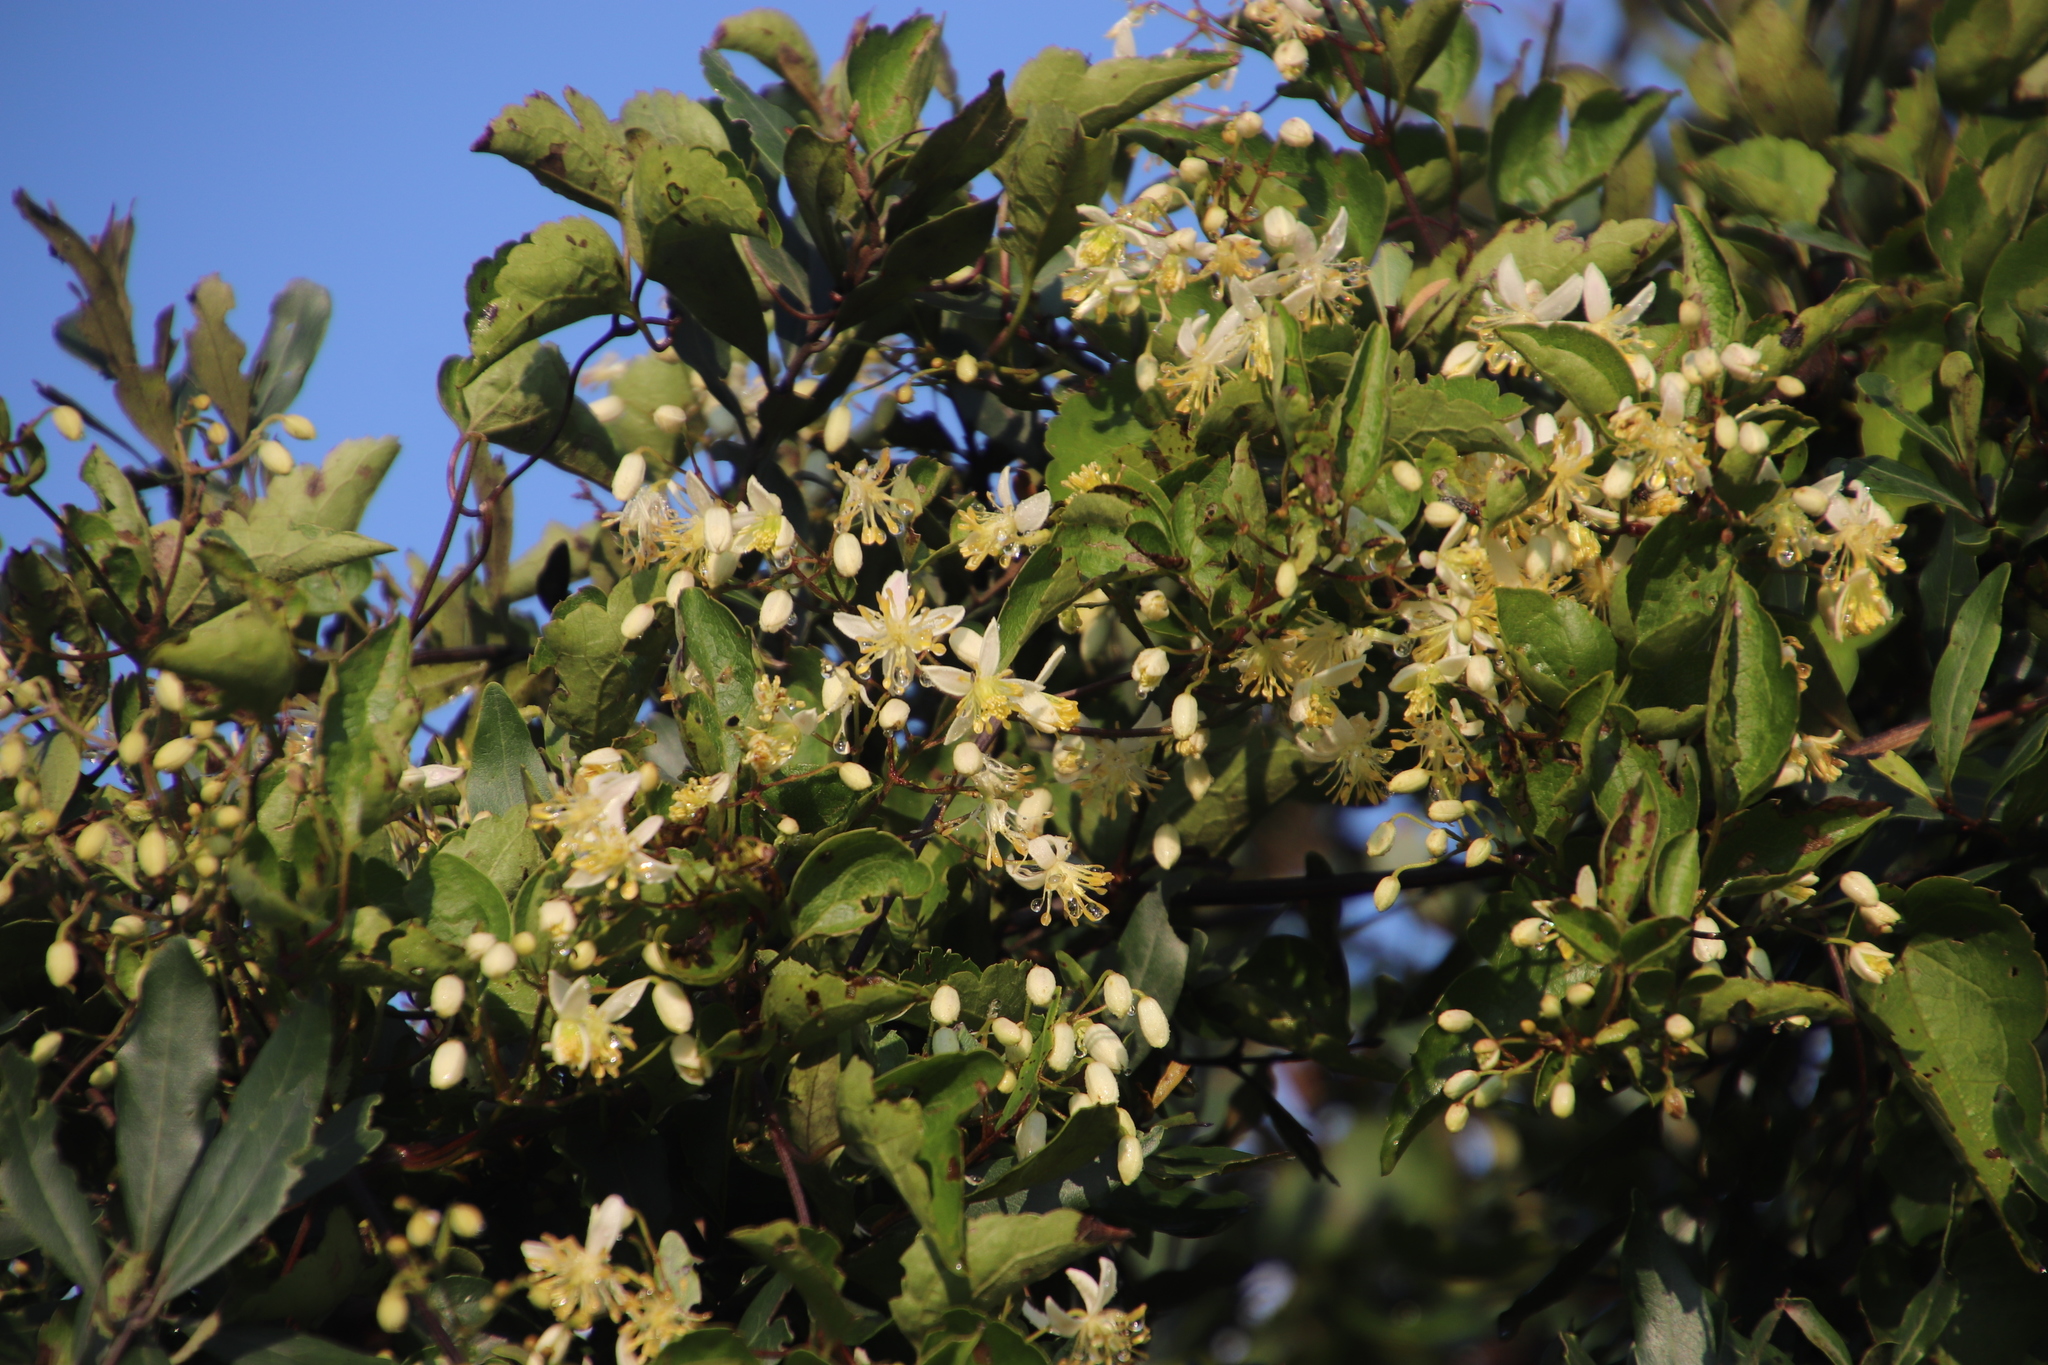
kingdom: Plantae
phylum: Tracheophyta
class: Magnoliopsida
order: Ranunculales
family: Ranunculaceae
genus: Clematis
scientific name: Clematis brachiata
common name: Traveler's-joy
